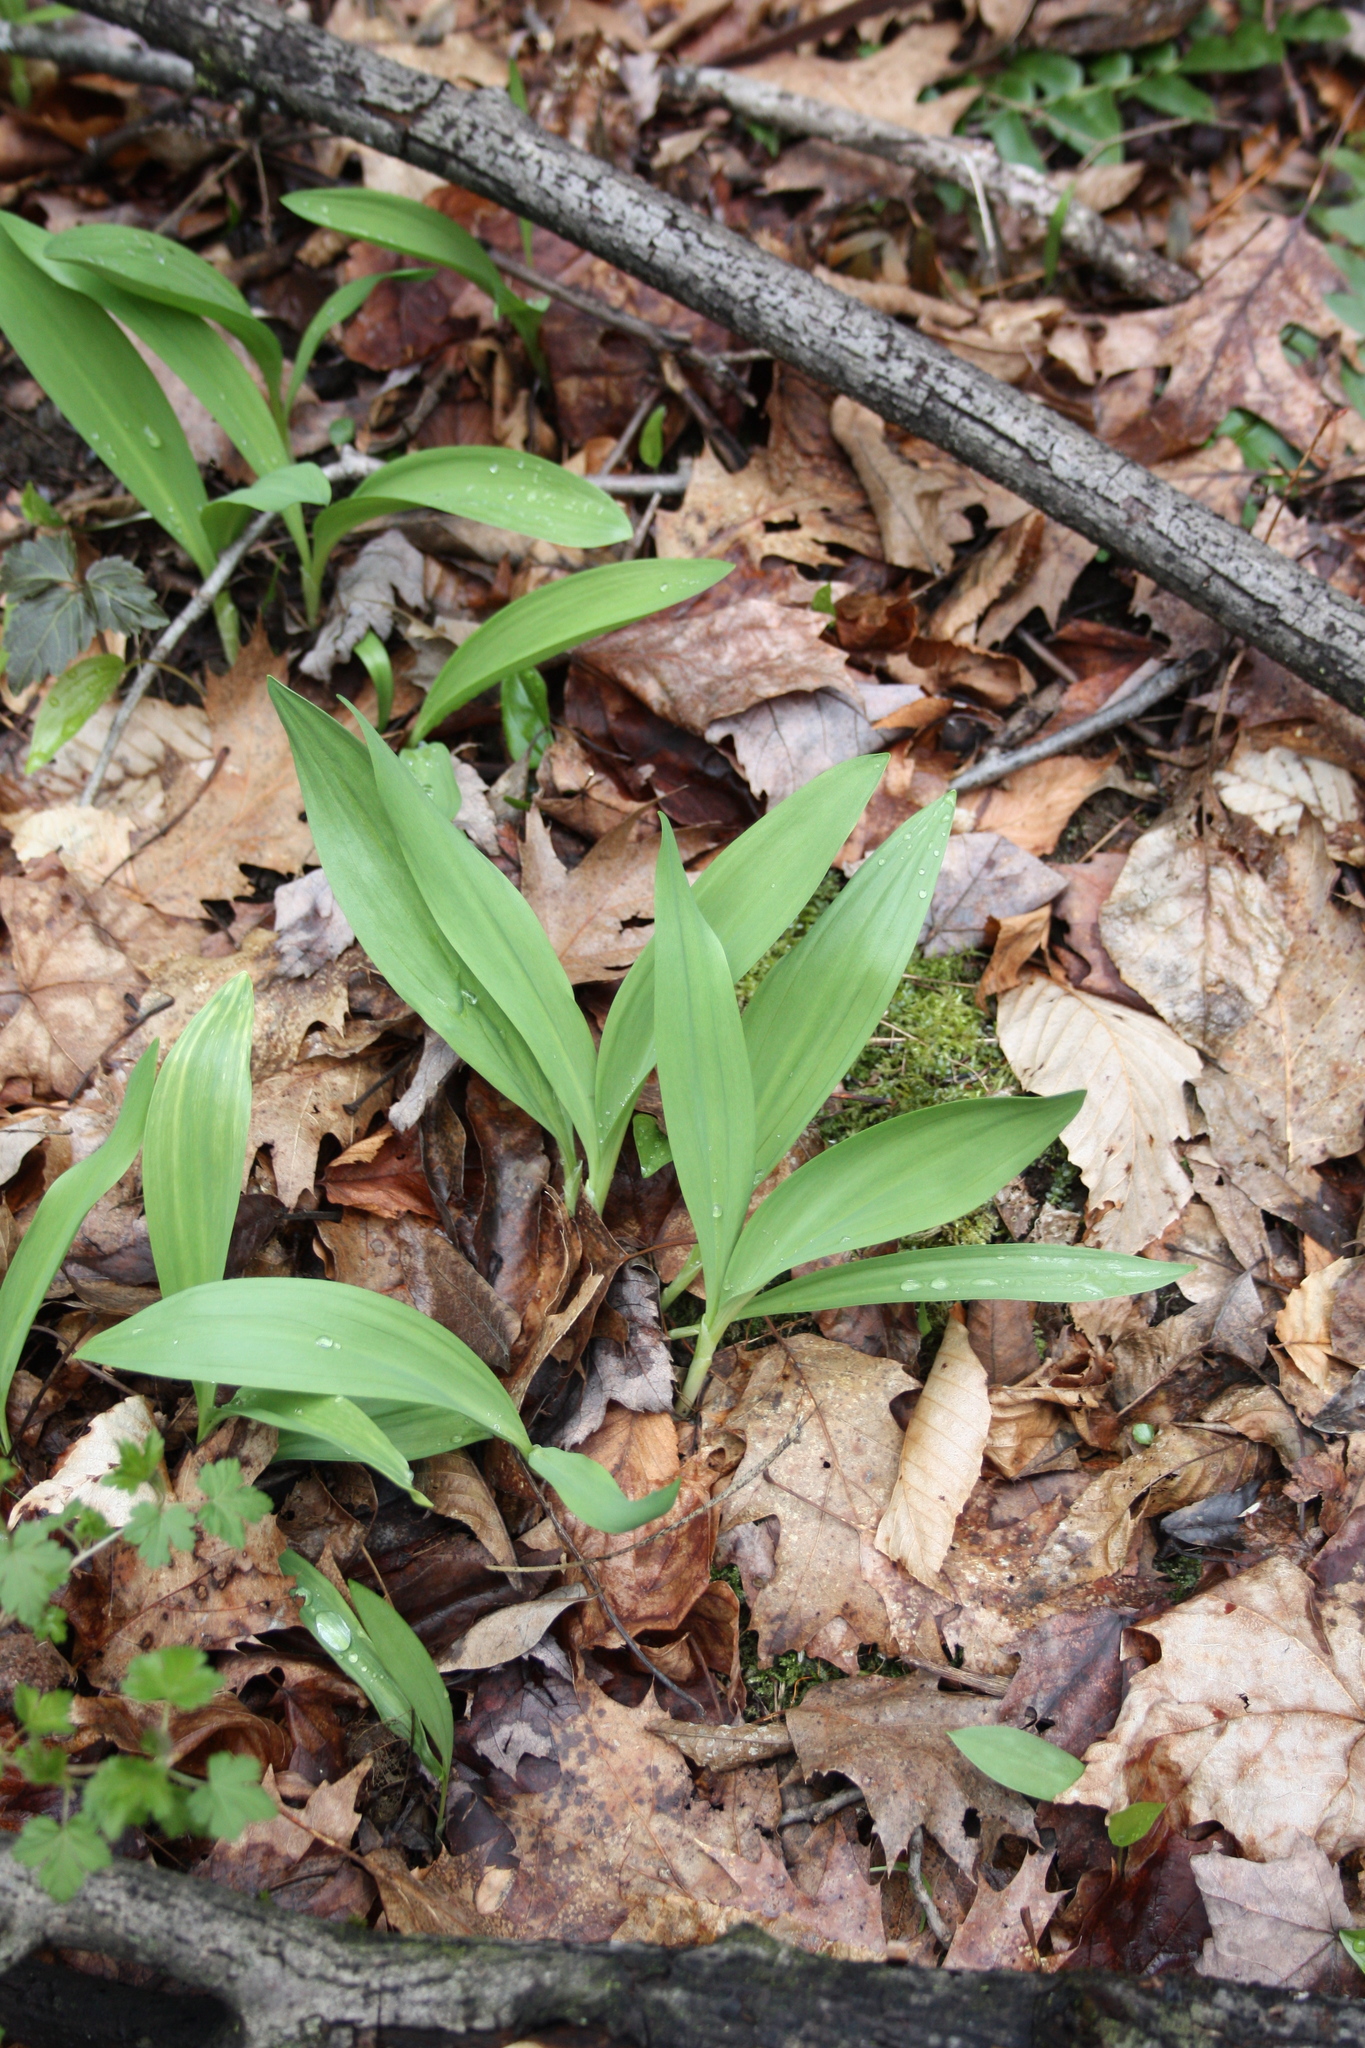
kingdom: Plantae
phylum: Tracheophyta
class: Liliopsida
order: Asparagales
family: Amaryllidaceae
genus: Allium
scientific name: Allium tricoccum
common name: Ramp
